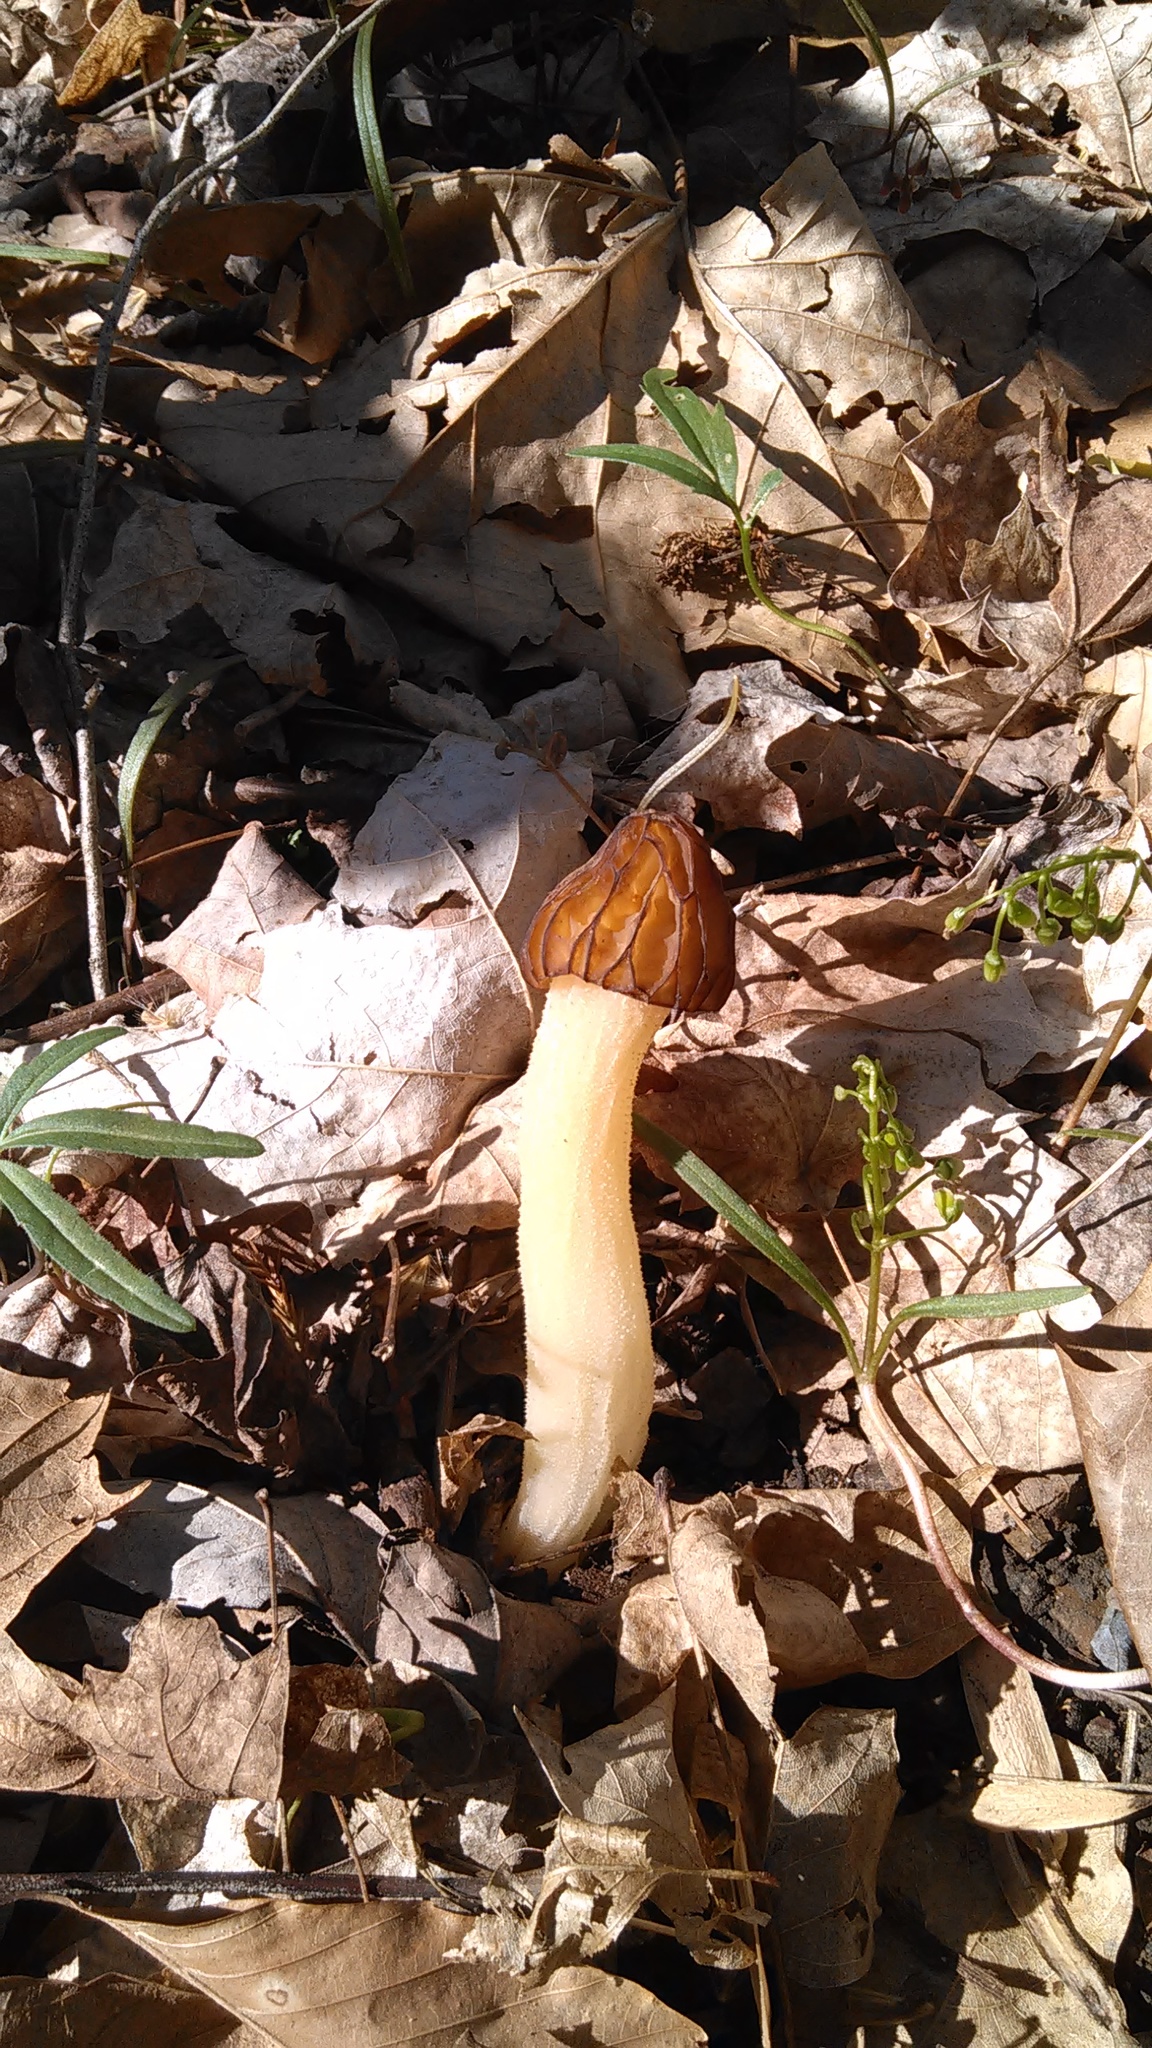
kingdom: Fungi
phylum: Ascomycota
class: Pezizomycetes
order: Pezizales
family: Morchellaceae
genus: Morchella
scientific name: Morchella punctipes
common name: Half-free morel
